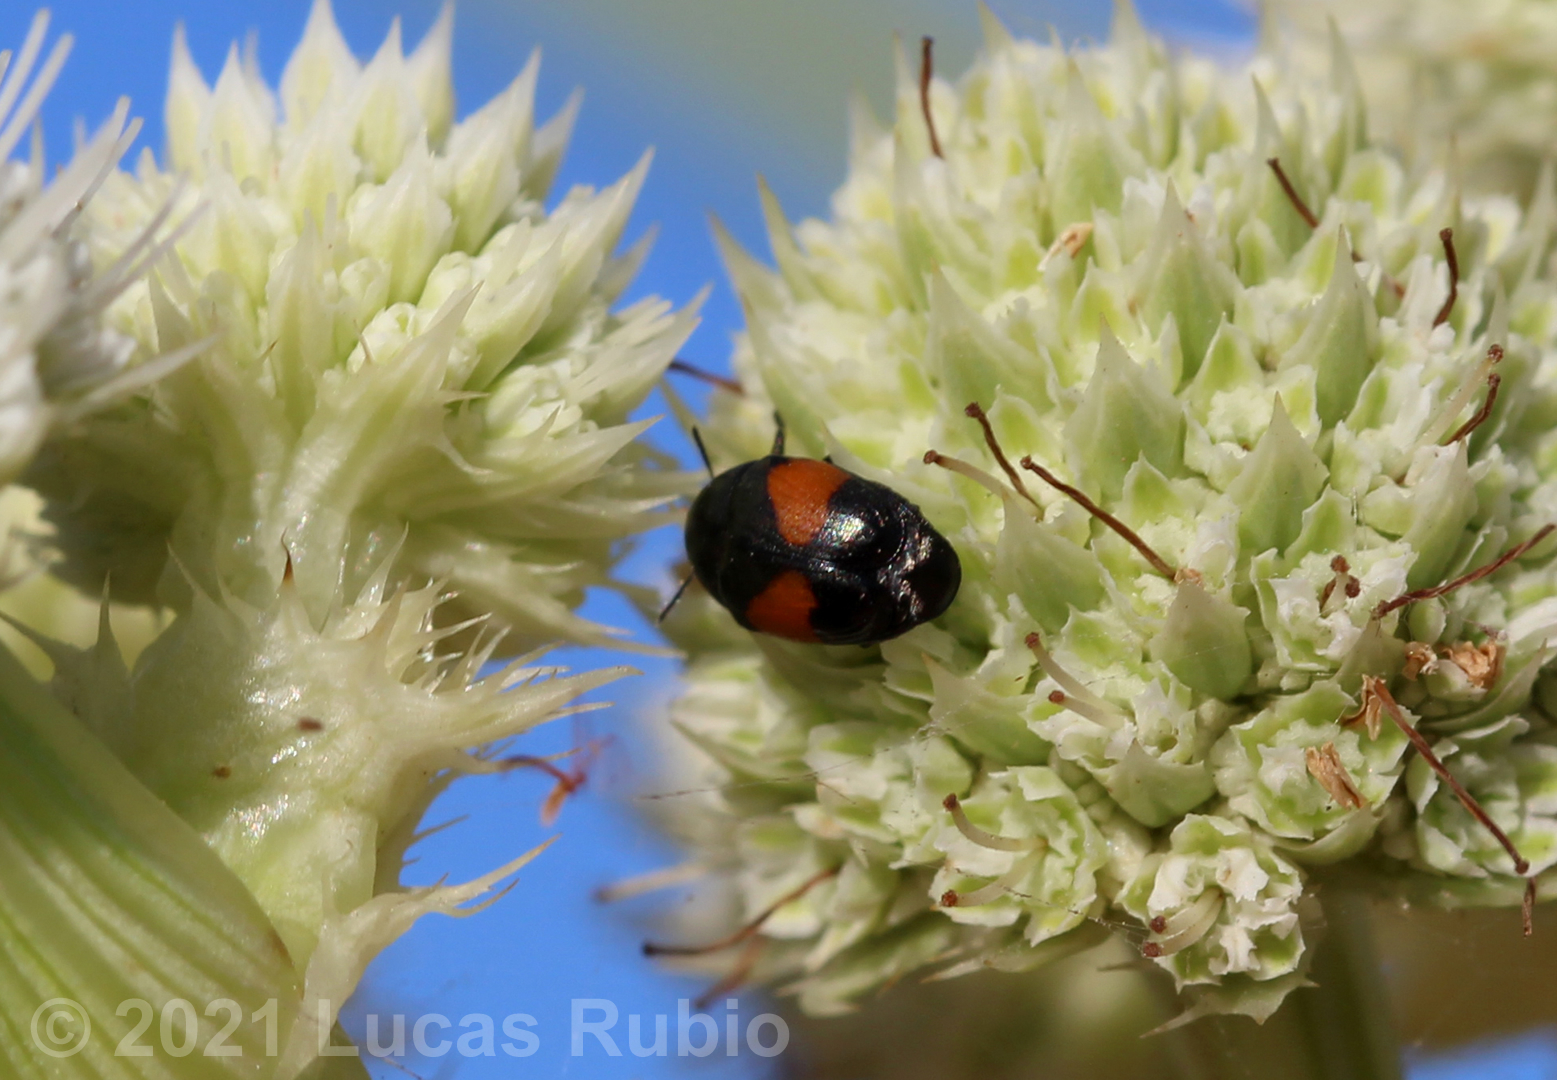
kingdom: Animalia
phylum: Arthropoda
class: Insecta
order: Coleoptera
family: Chrysomelidae
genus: Lexiphanes
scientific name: Lexiphanes
